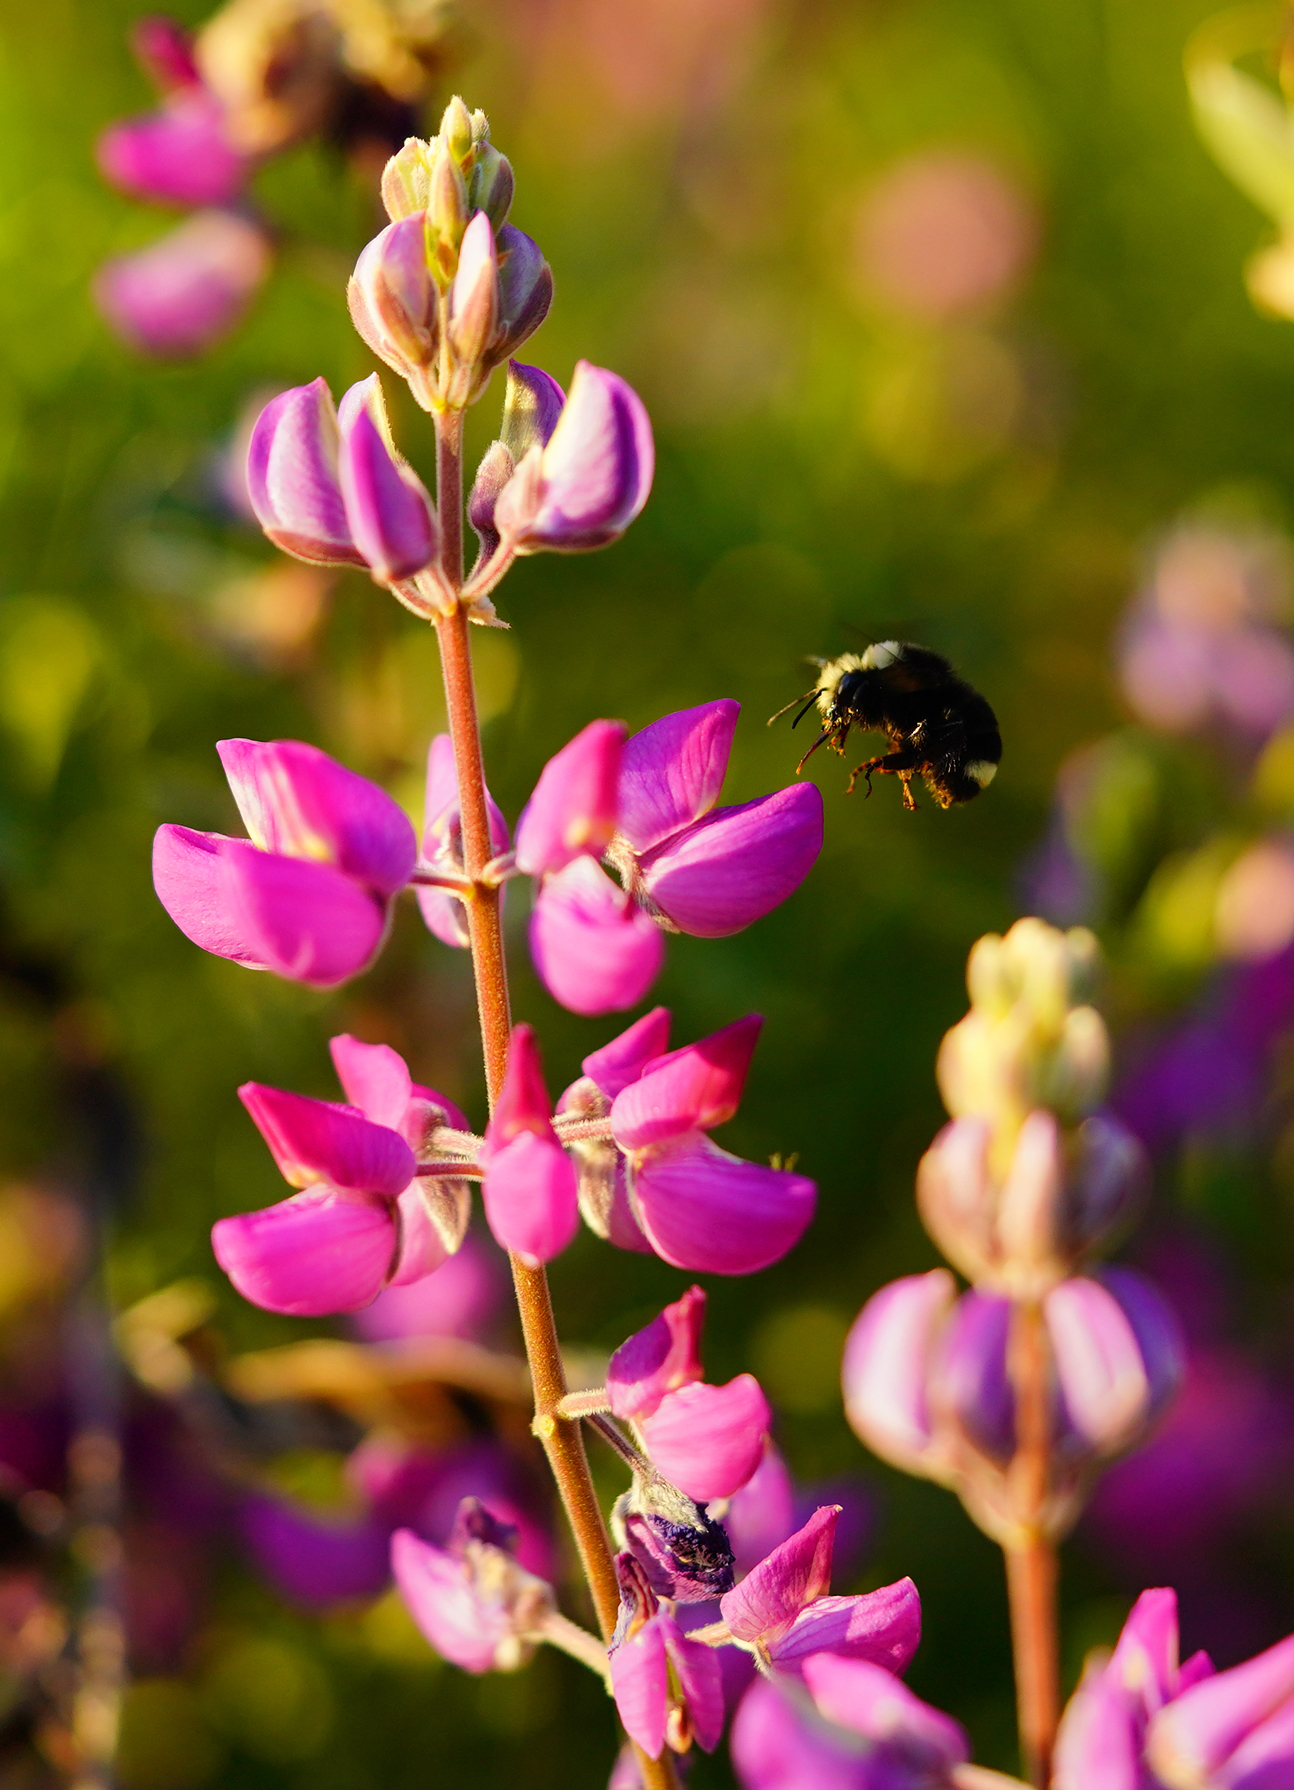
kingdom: Animalia
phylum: Arthropoda
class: Insecta
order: Hymenoptera
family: Apidae
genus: Bombus
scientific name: Bombus vosnesenskii
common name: Vosnesensky bumble bee
